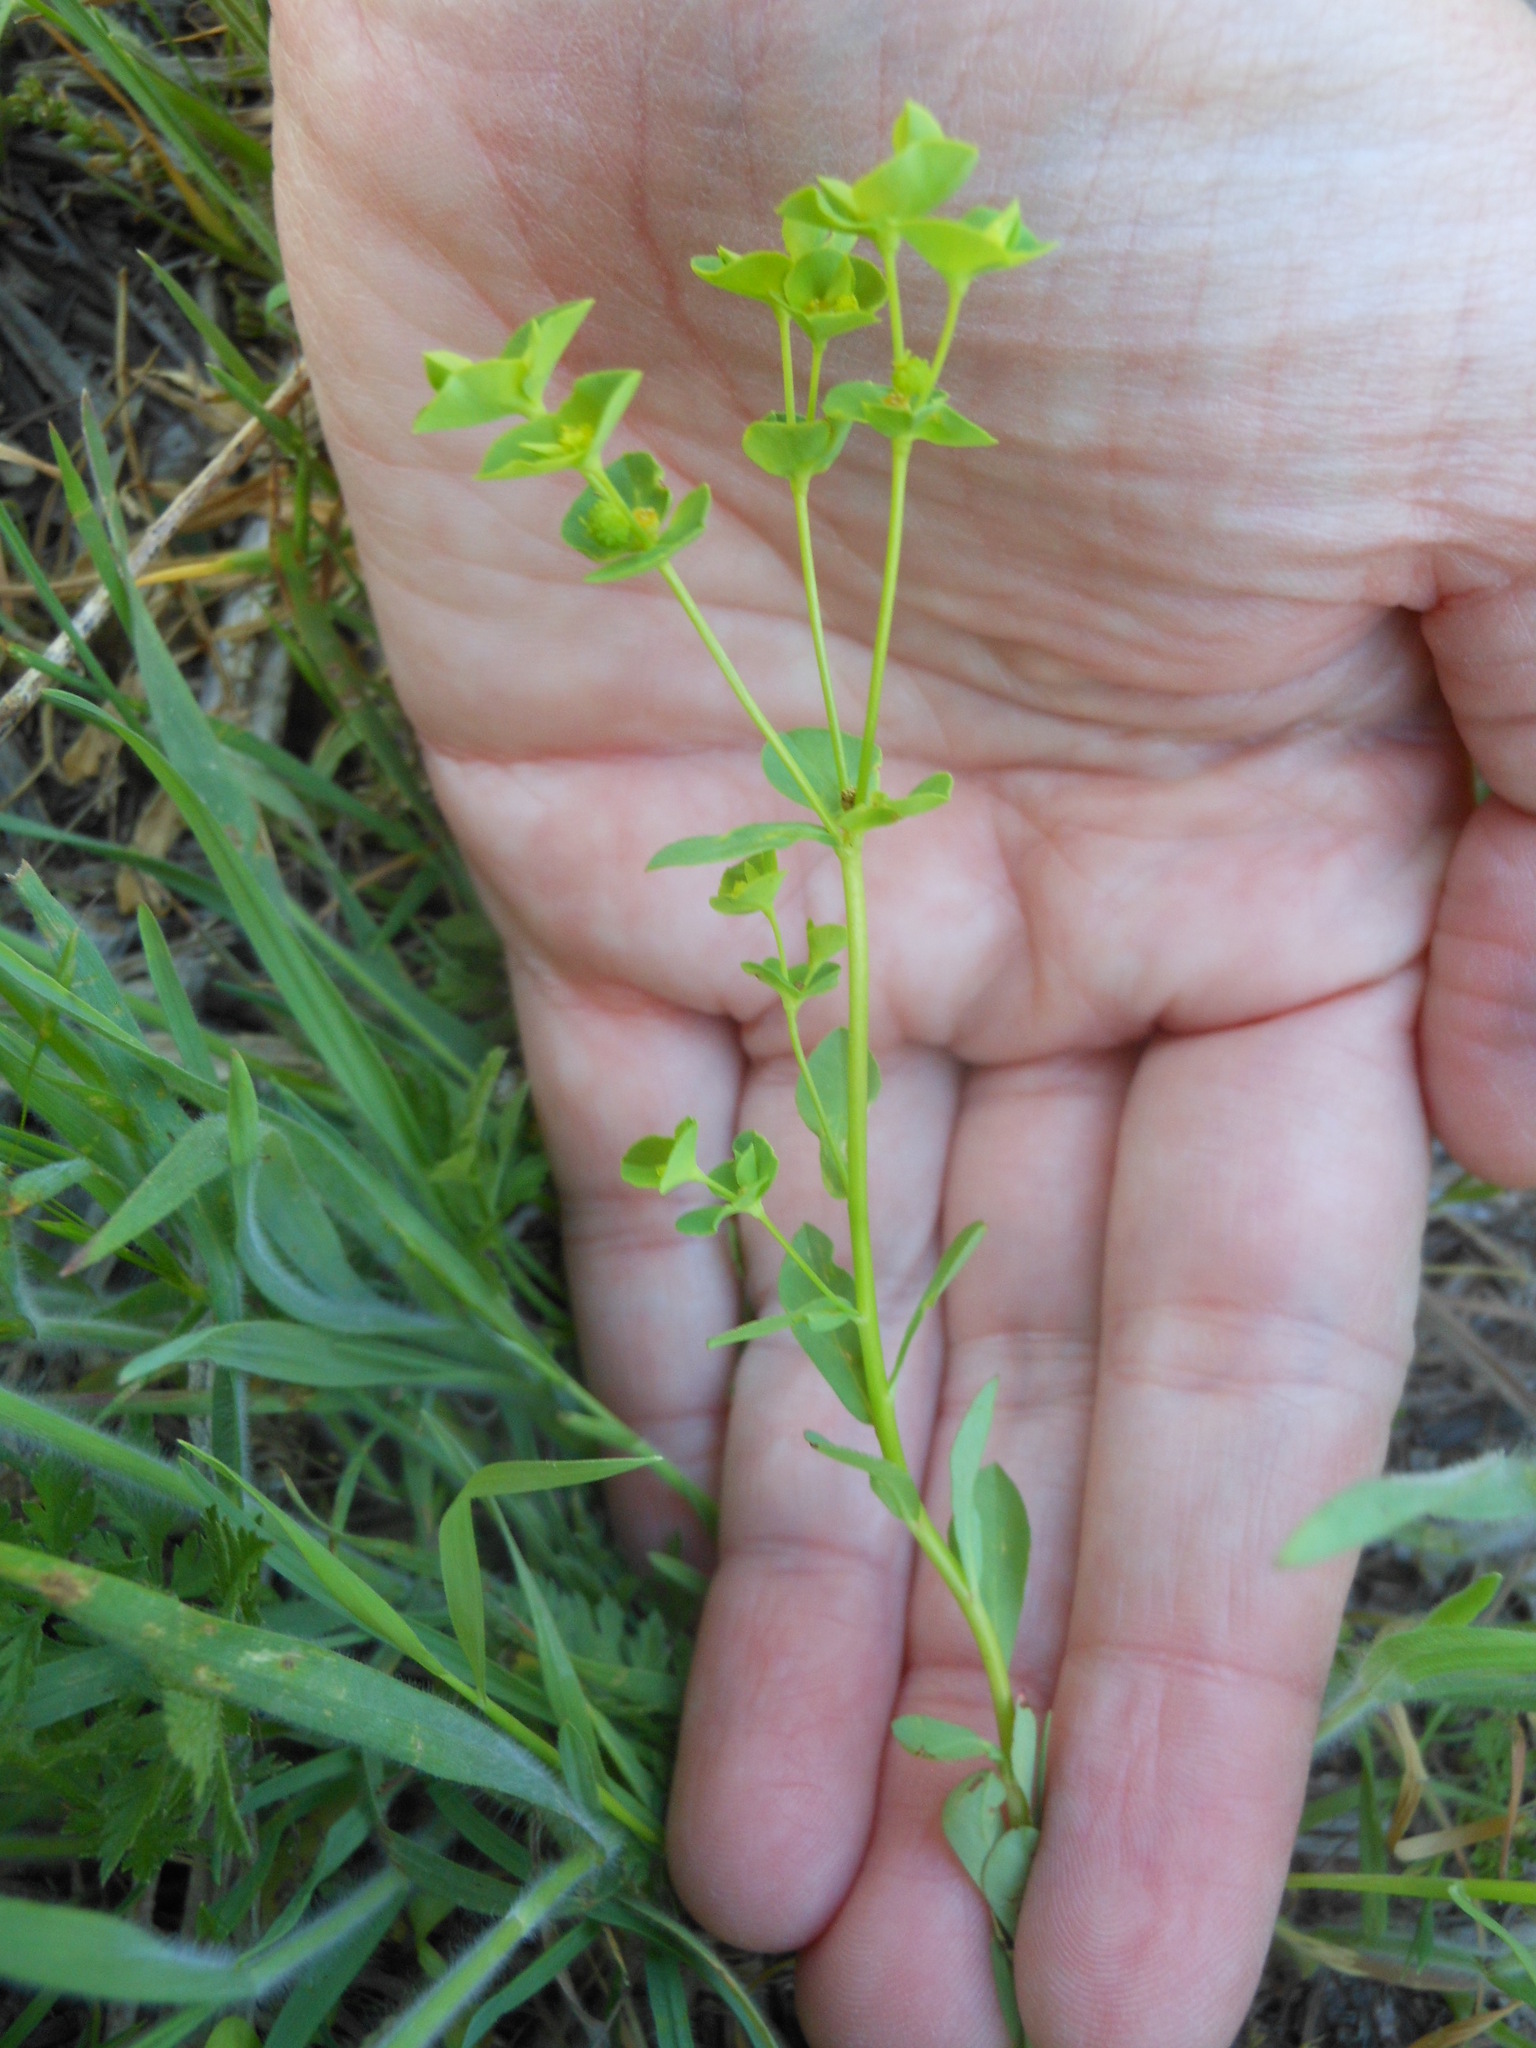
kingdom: Plantae
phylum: Tracheophyta
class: Magnoliopsida
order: Malpighiales
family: Euphorbiaceae
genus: Euphorbia
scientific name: Euphorbia spathulata
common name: Blunt spurge
